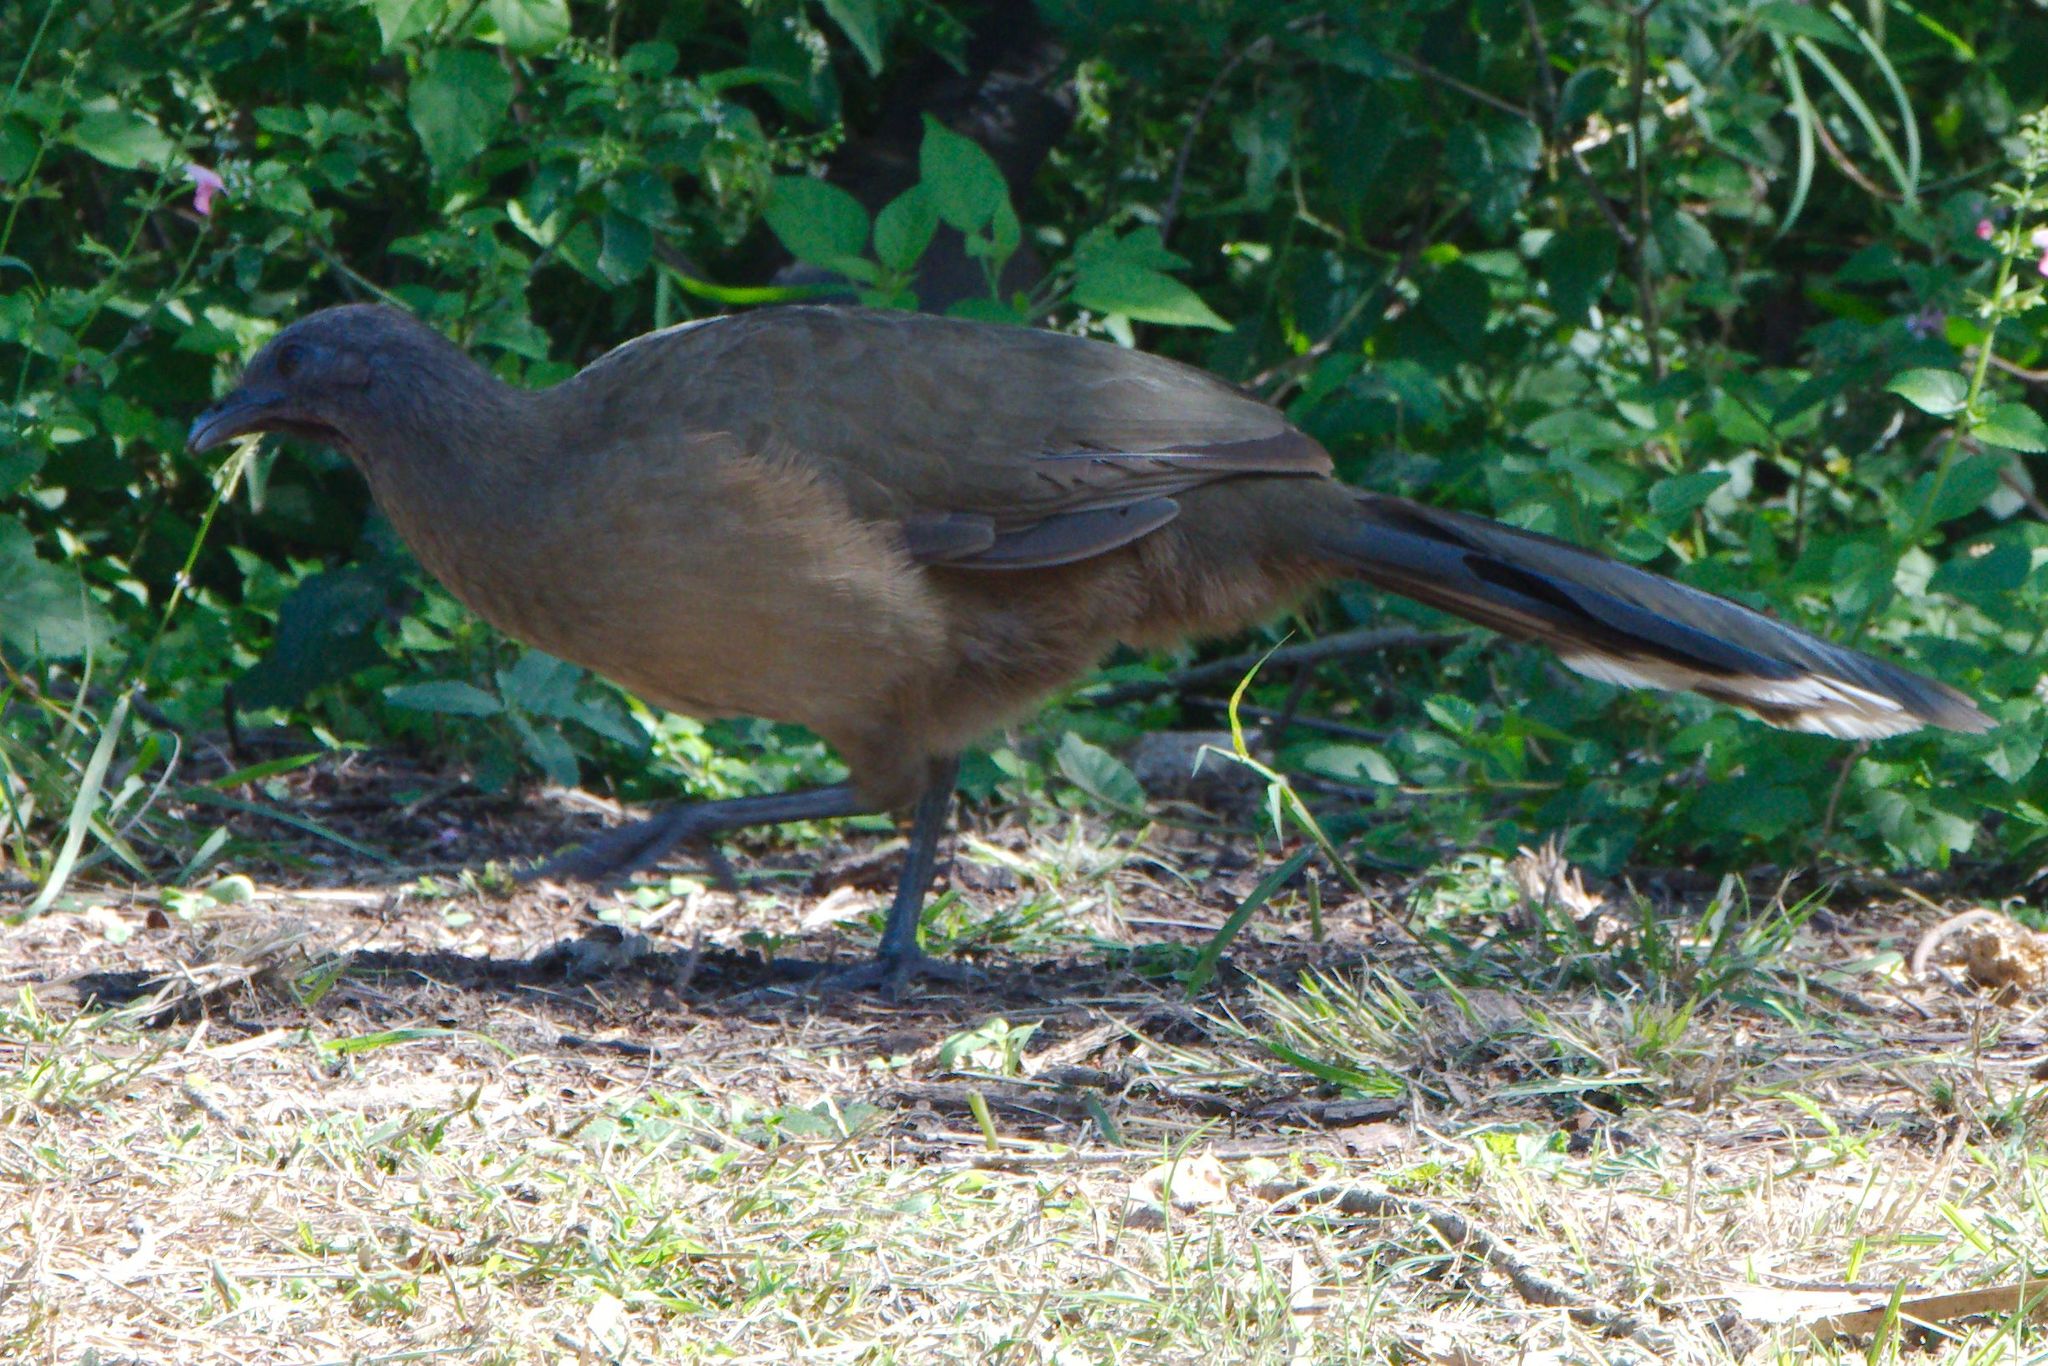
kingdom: Animalia
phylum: Chordata
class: Aves
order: Galliformes
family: Cracidae
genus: Ortalis
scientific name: Ortalis vetula
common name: Plain chachalaca
